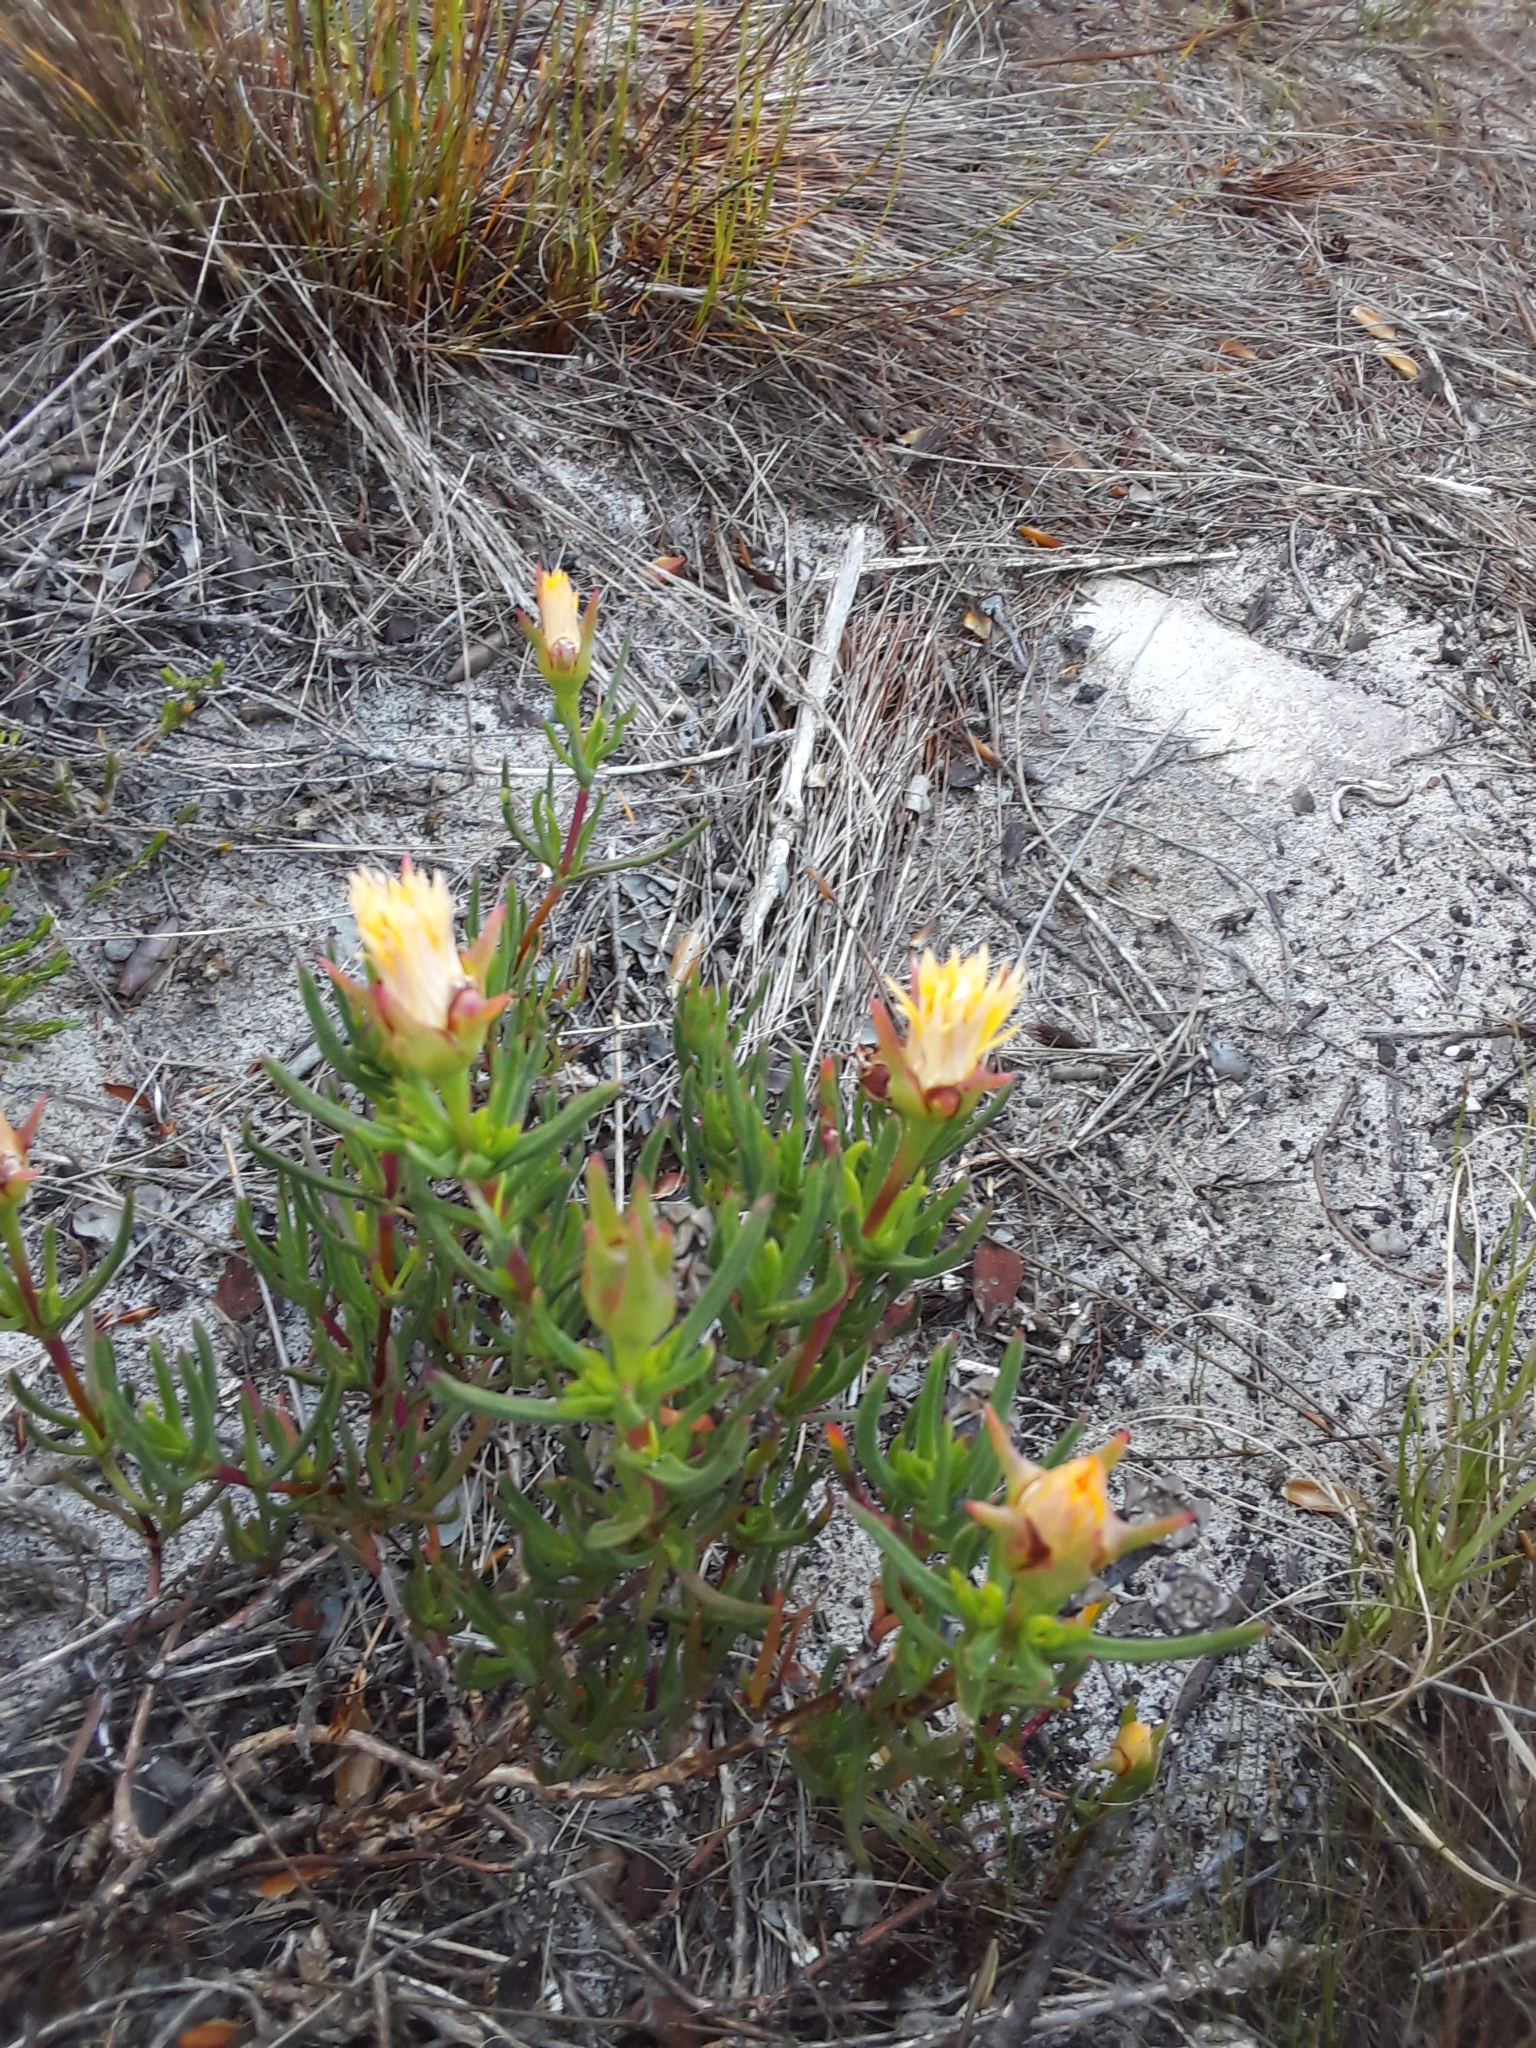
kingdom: Plantae
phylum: Tracheophyta
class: Magnoliopsida
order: Caryophyllales
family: Aizoaceae
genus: Lampranthus
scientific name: Lampranthus bicolor
